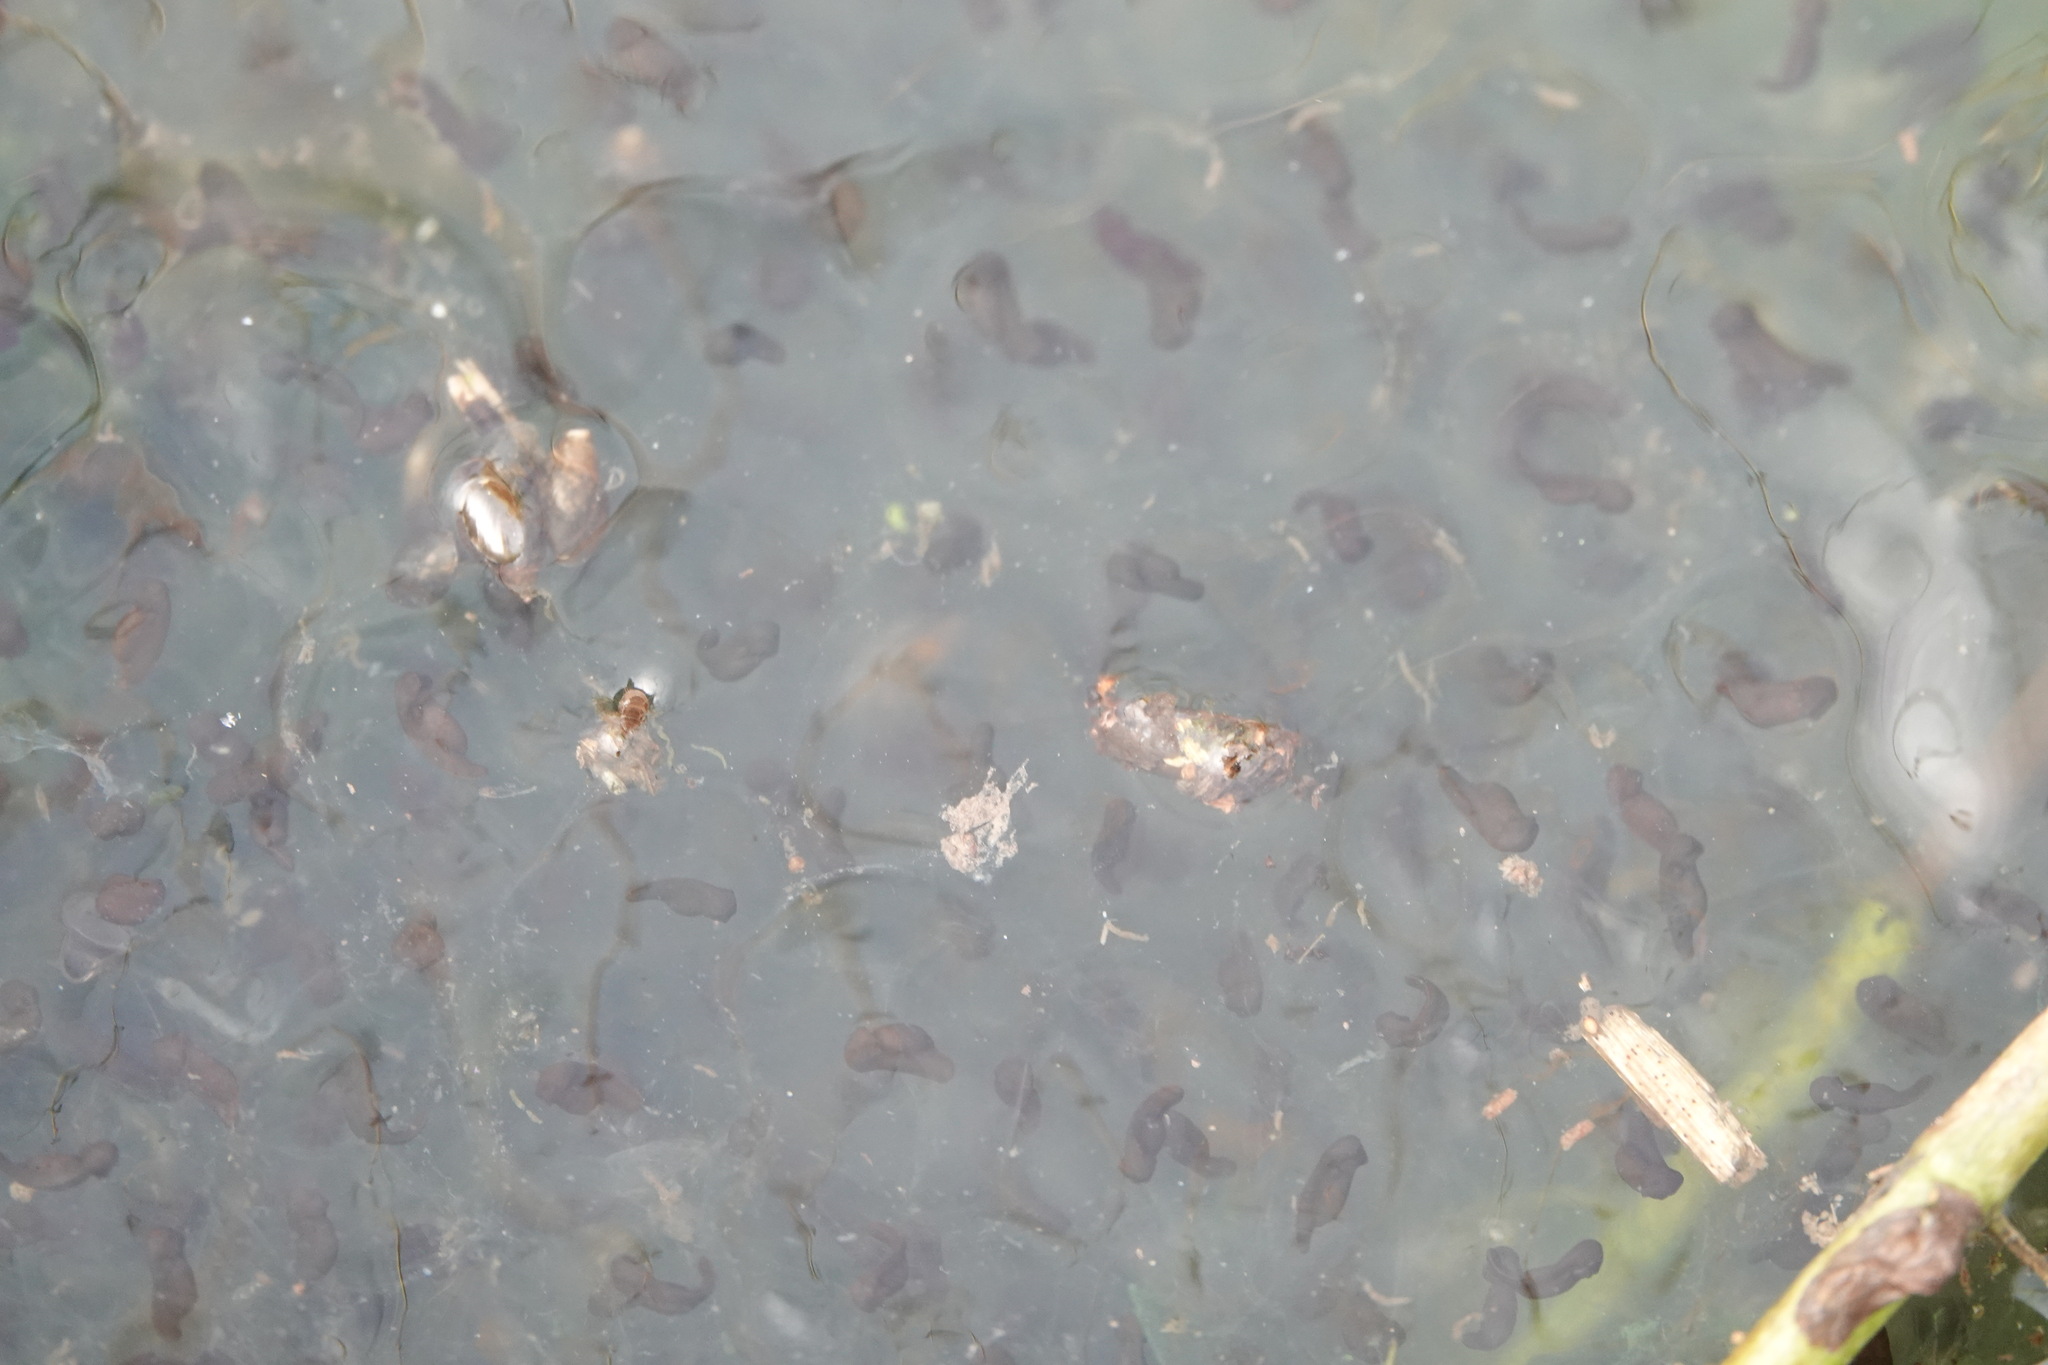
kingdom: Animalia
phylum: Chordata
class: Amphibia
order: Anura
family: Ranidae
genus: Rana
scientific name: Rana temporaria
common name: Common frog
